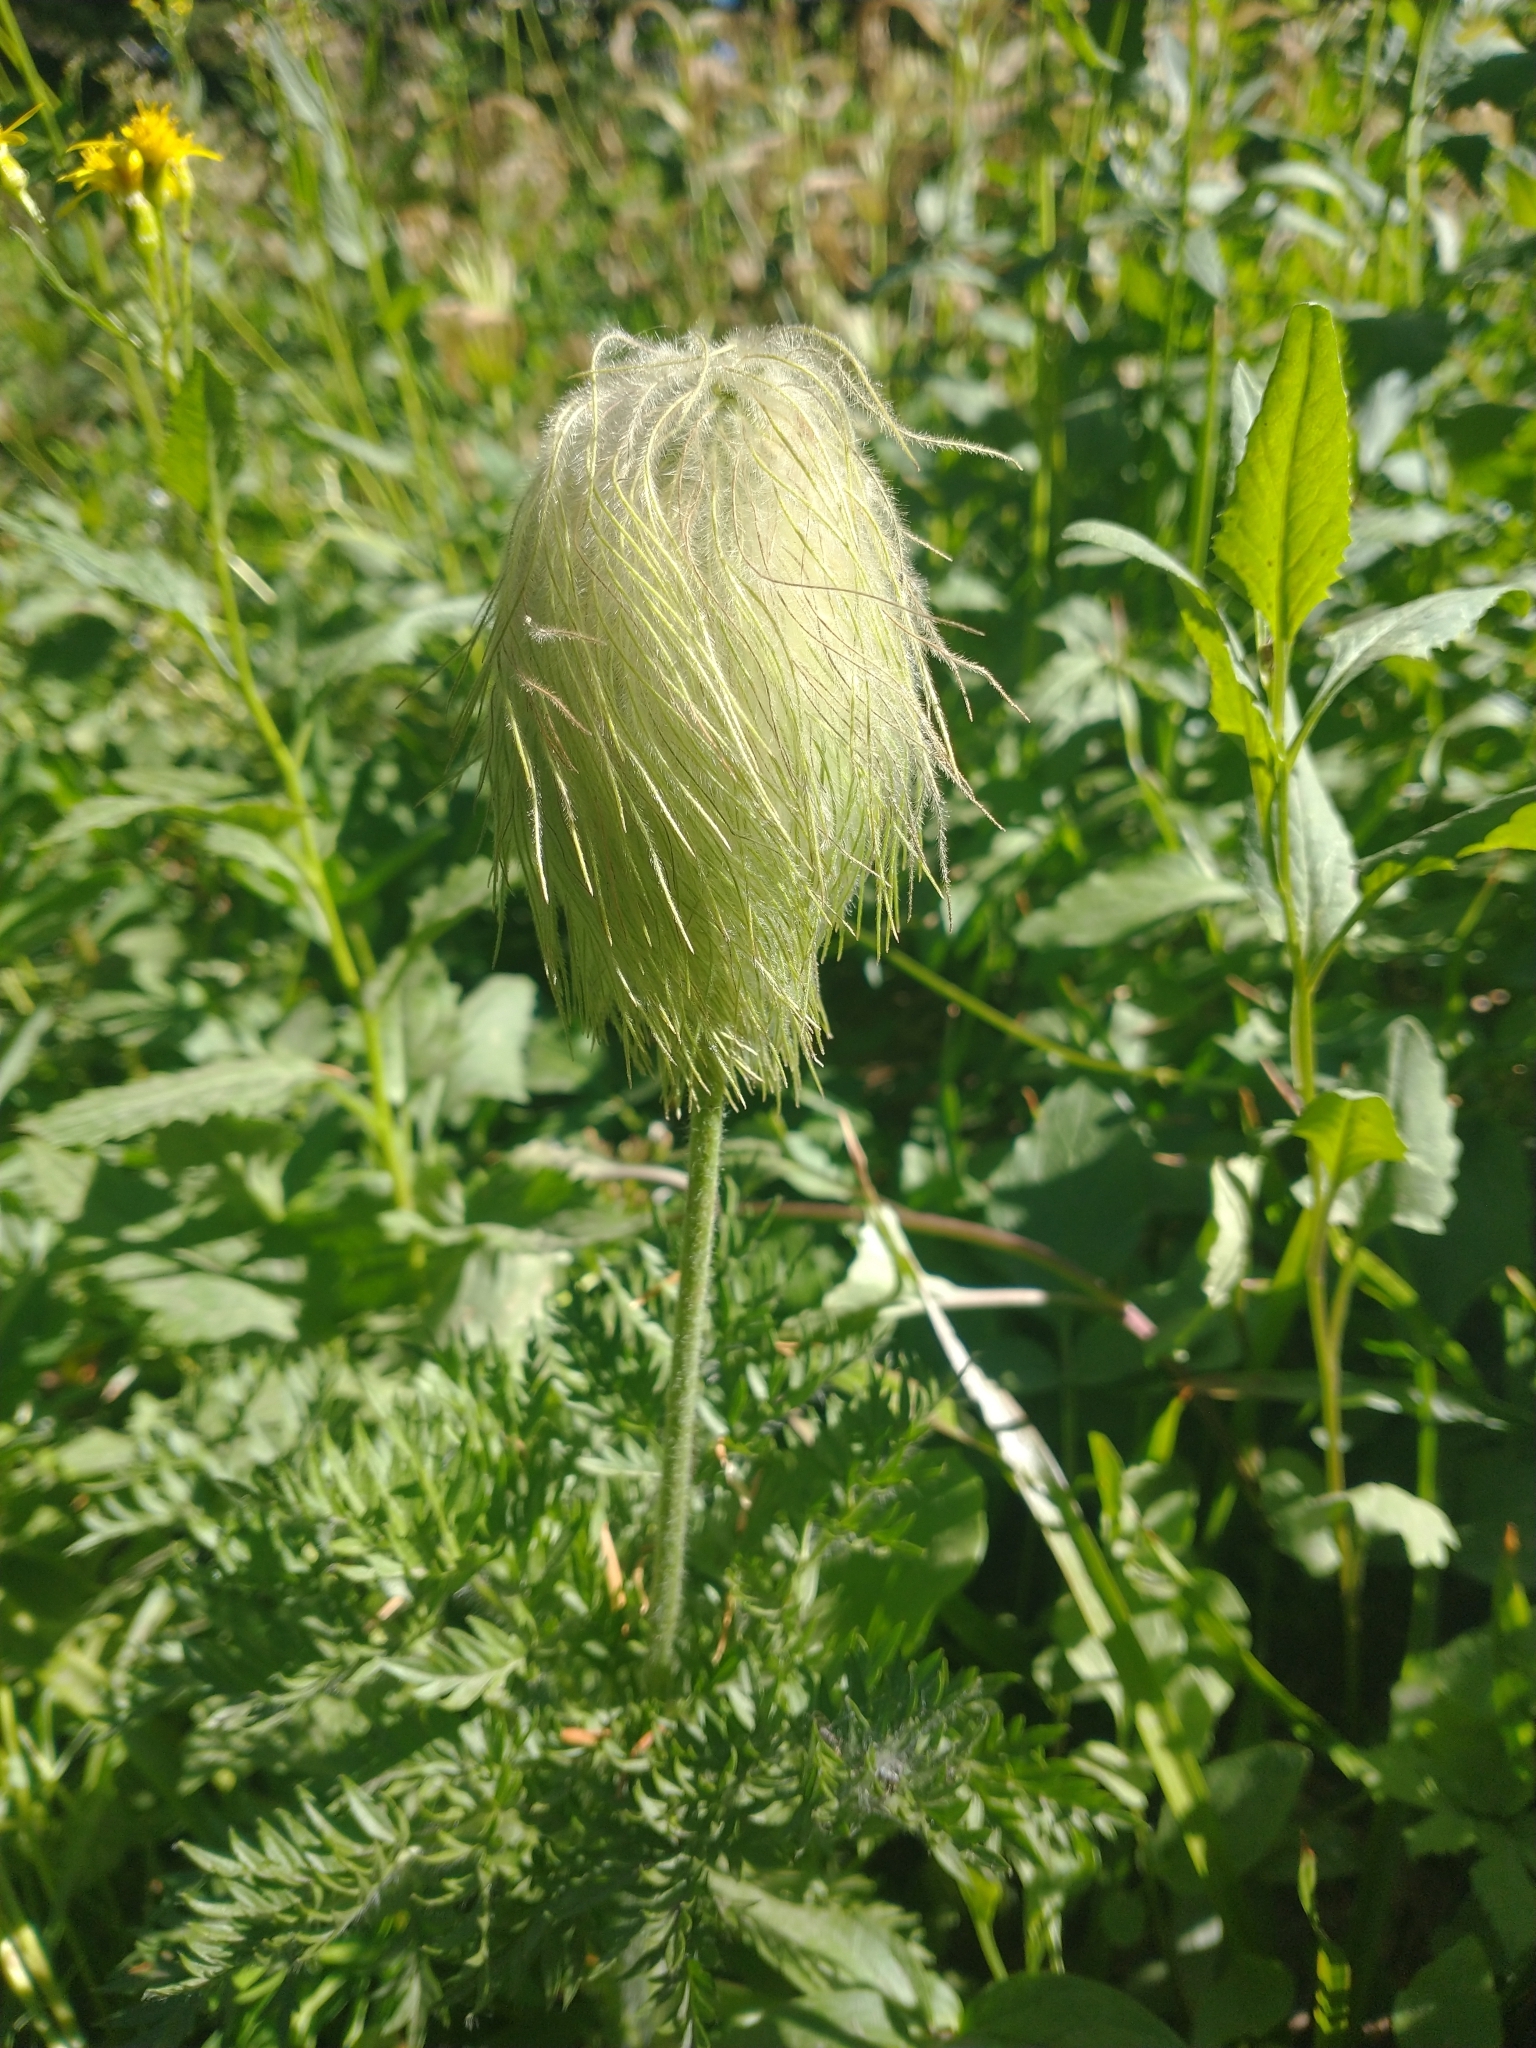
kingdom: Plantae
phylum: Tracheophyta
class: Magnoliopsida
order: Ranunculales
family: Ranunculaceae
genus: Pulsatilla
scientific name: Pulsatilla occidentalis
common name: Mountain pasqueflower
